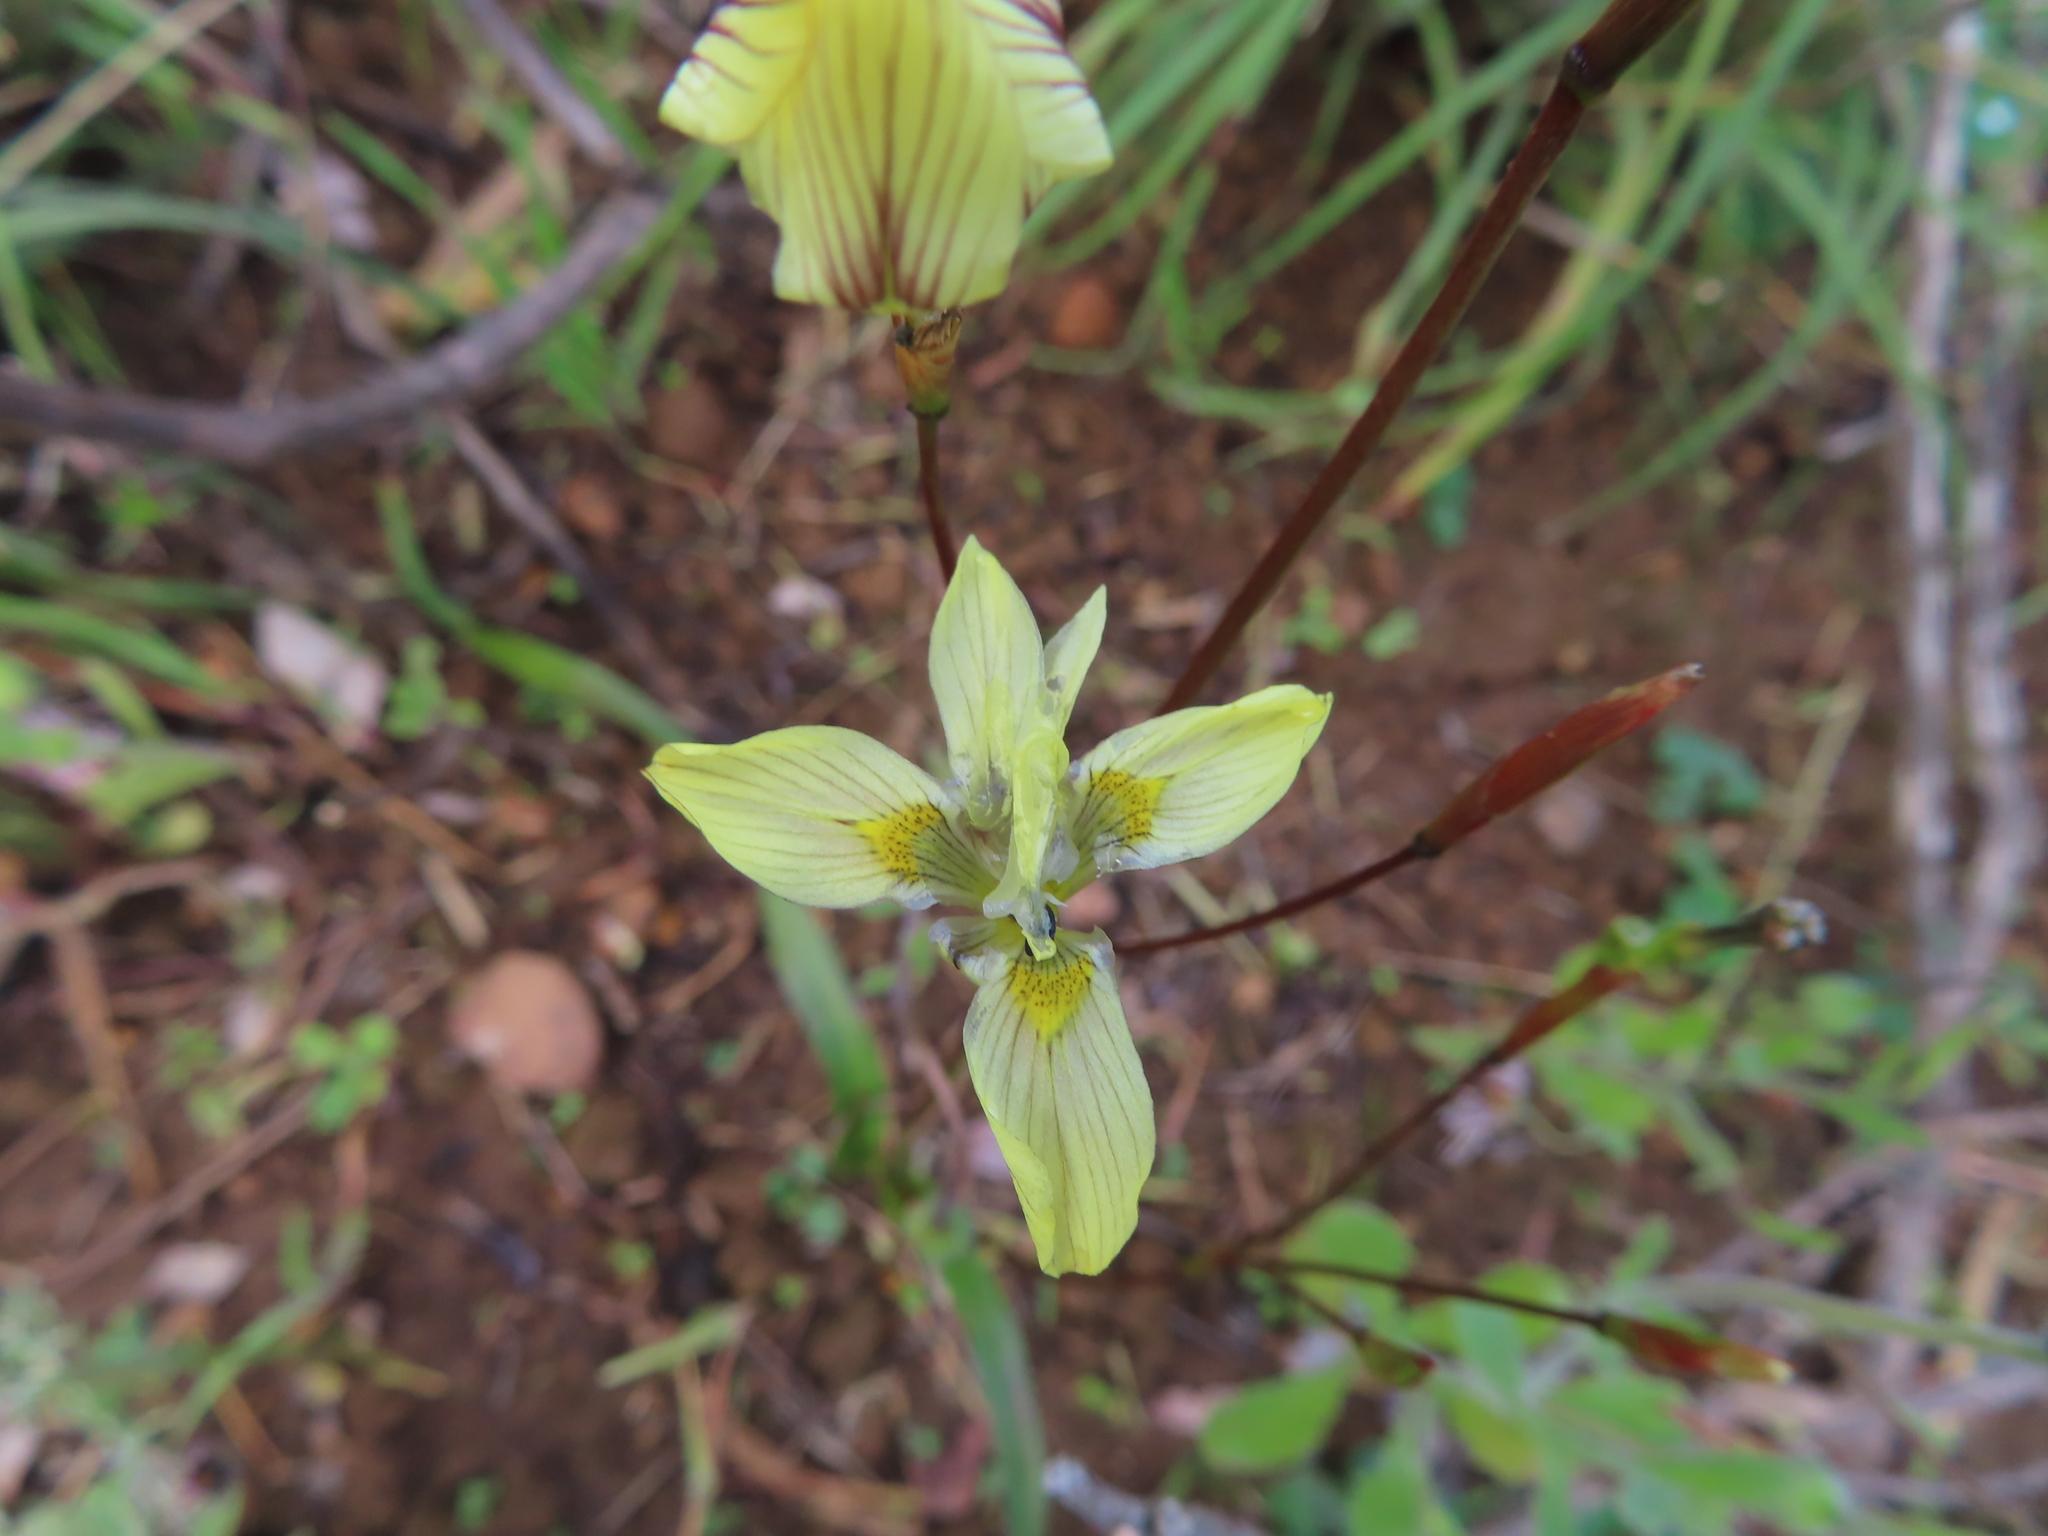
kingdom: Plantae
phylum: Tracheophyta
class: Liliopsida
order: Asparagales
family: Iridaceae
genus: Moraea
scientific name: Moraea gawleri
